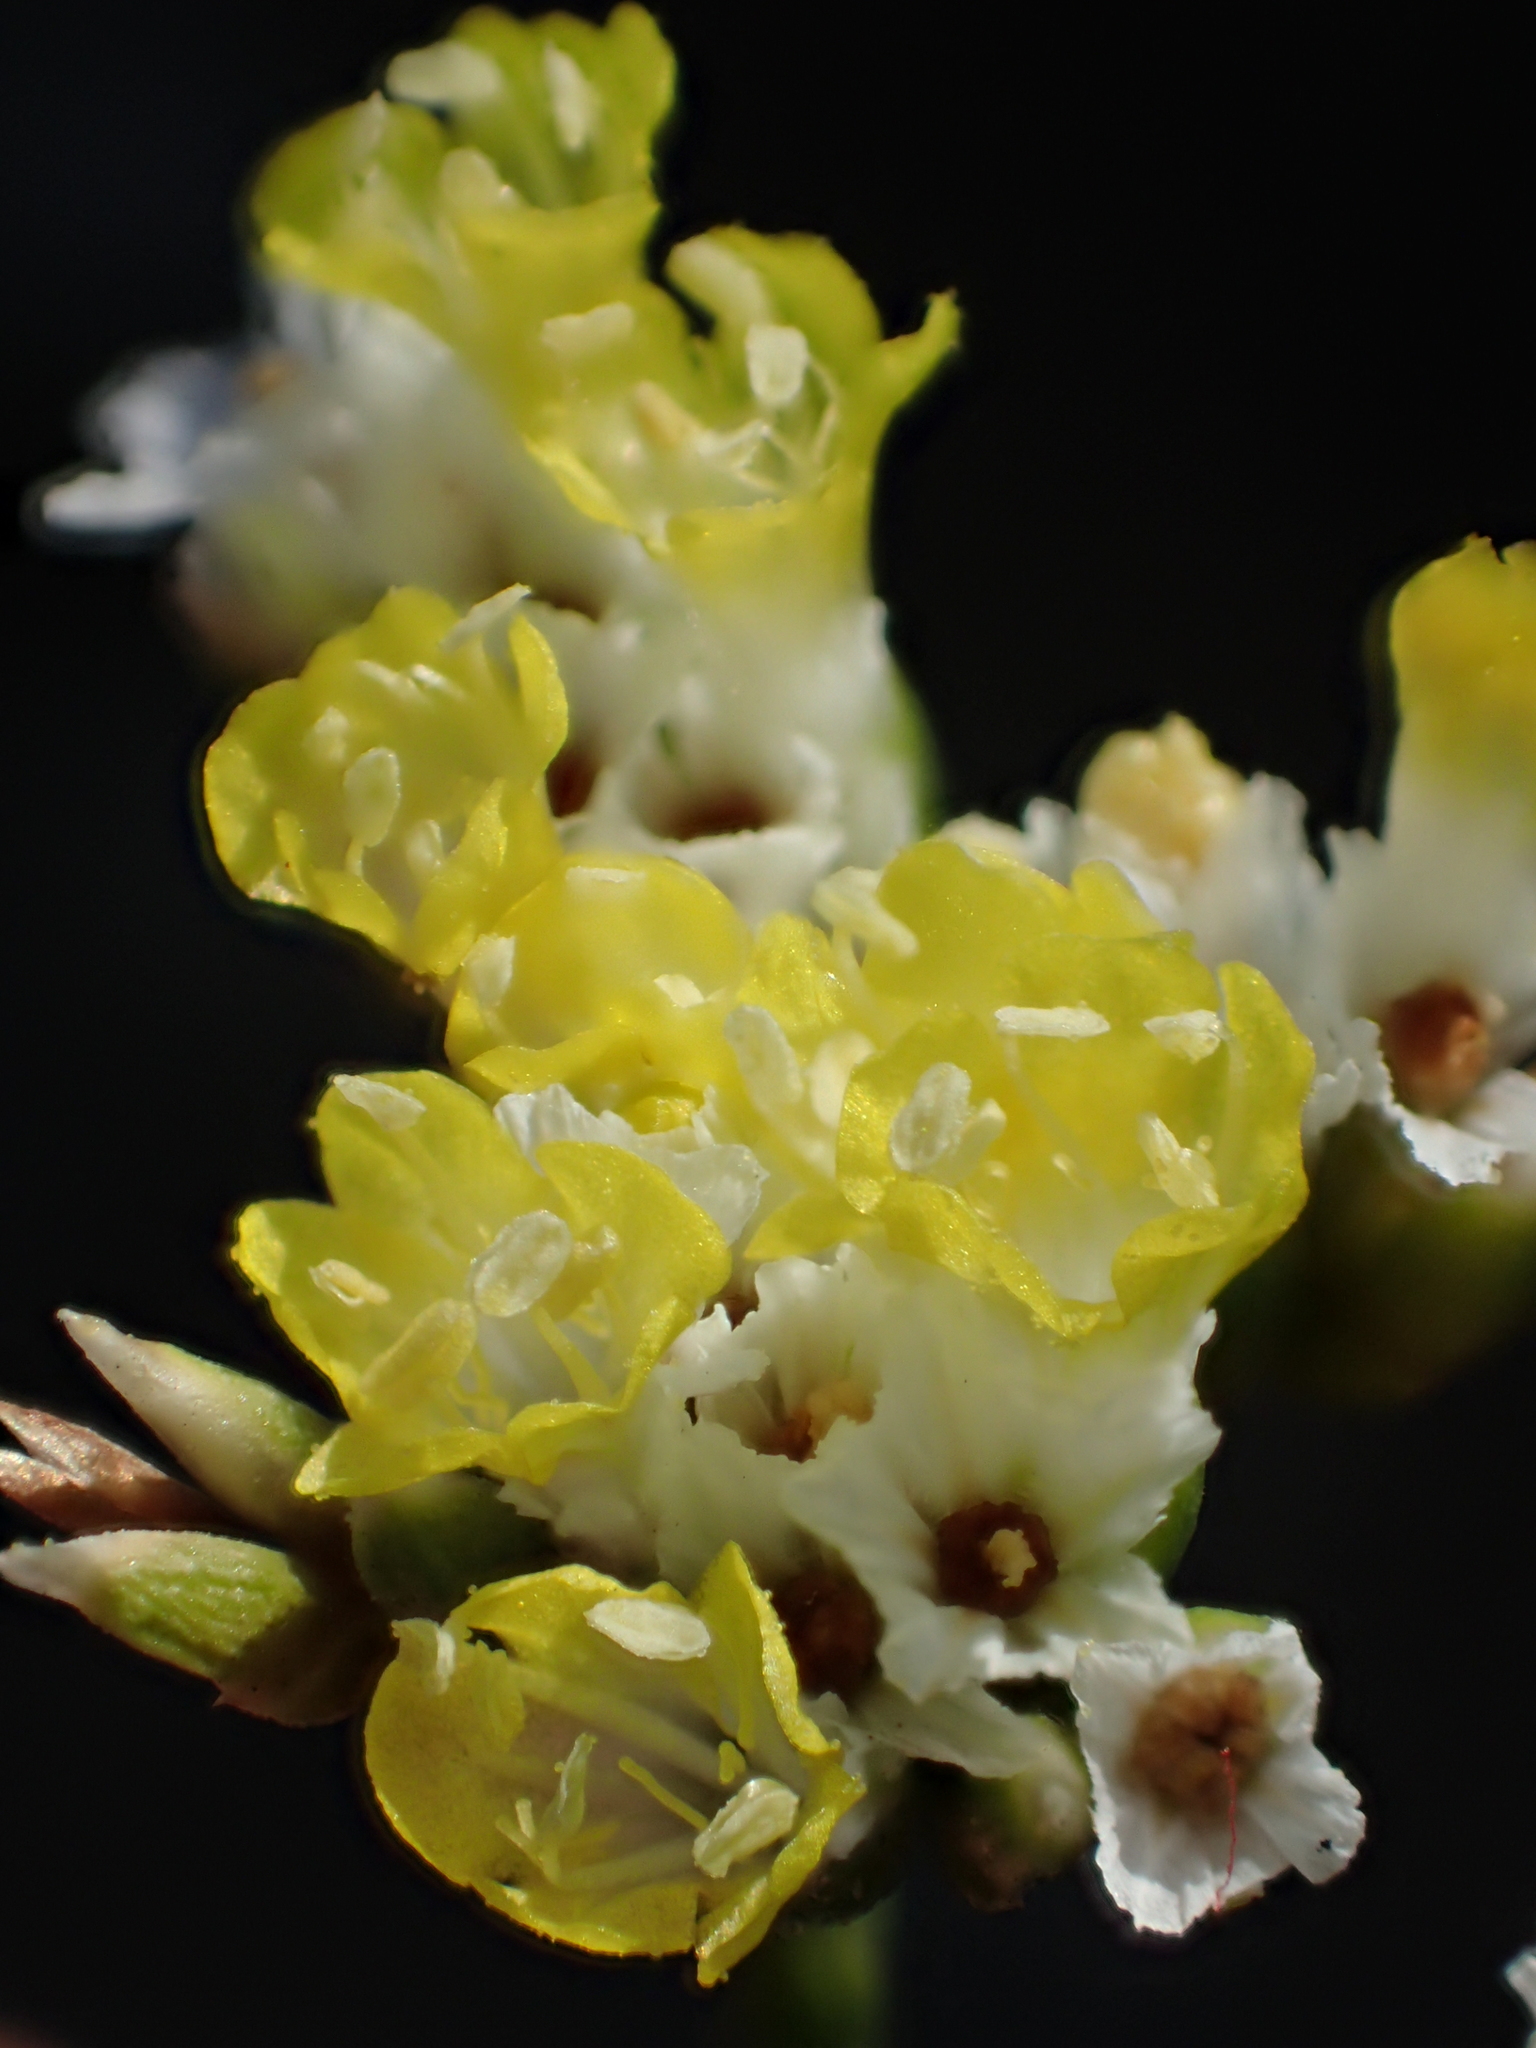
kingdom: Plantae
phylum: Tracheophyta
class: Magnoliopsida
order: Caryophyllales
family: Plumbaginaceae
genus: Limonium
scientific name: Limonium sinense
